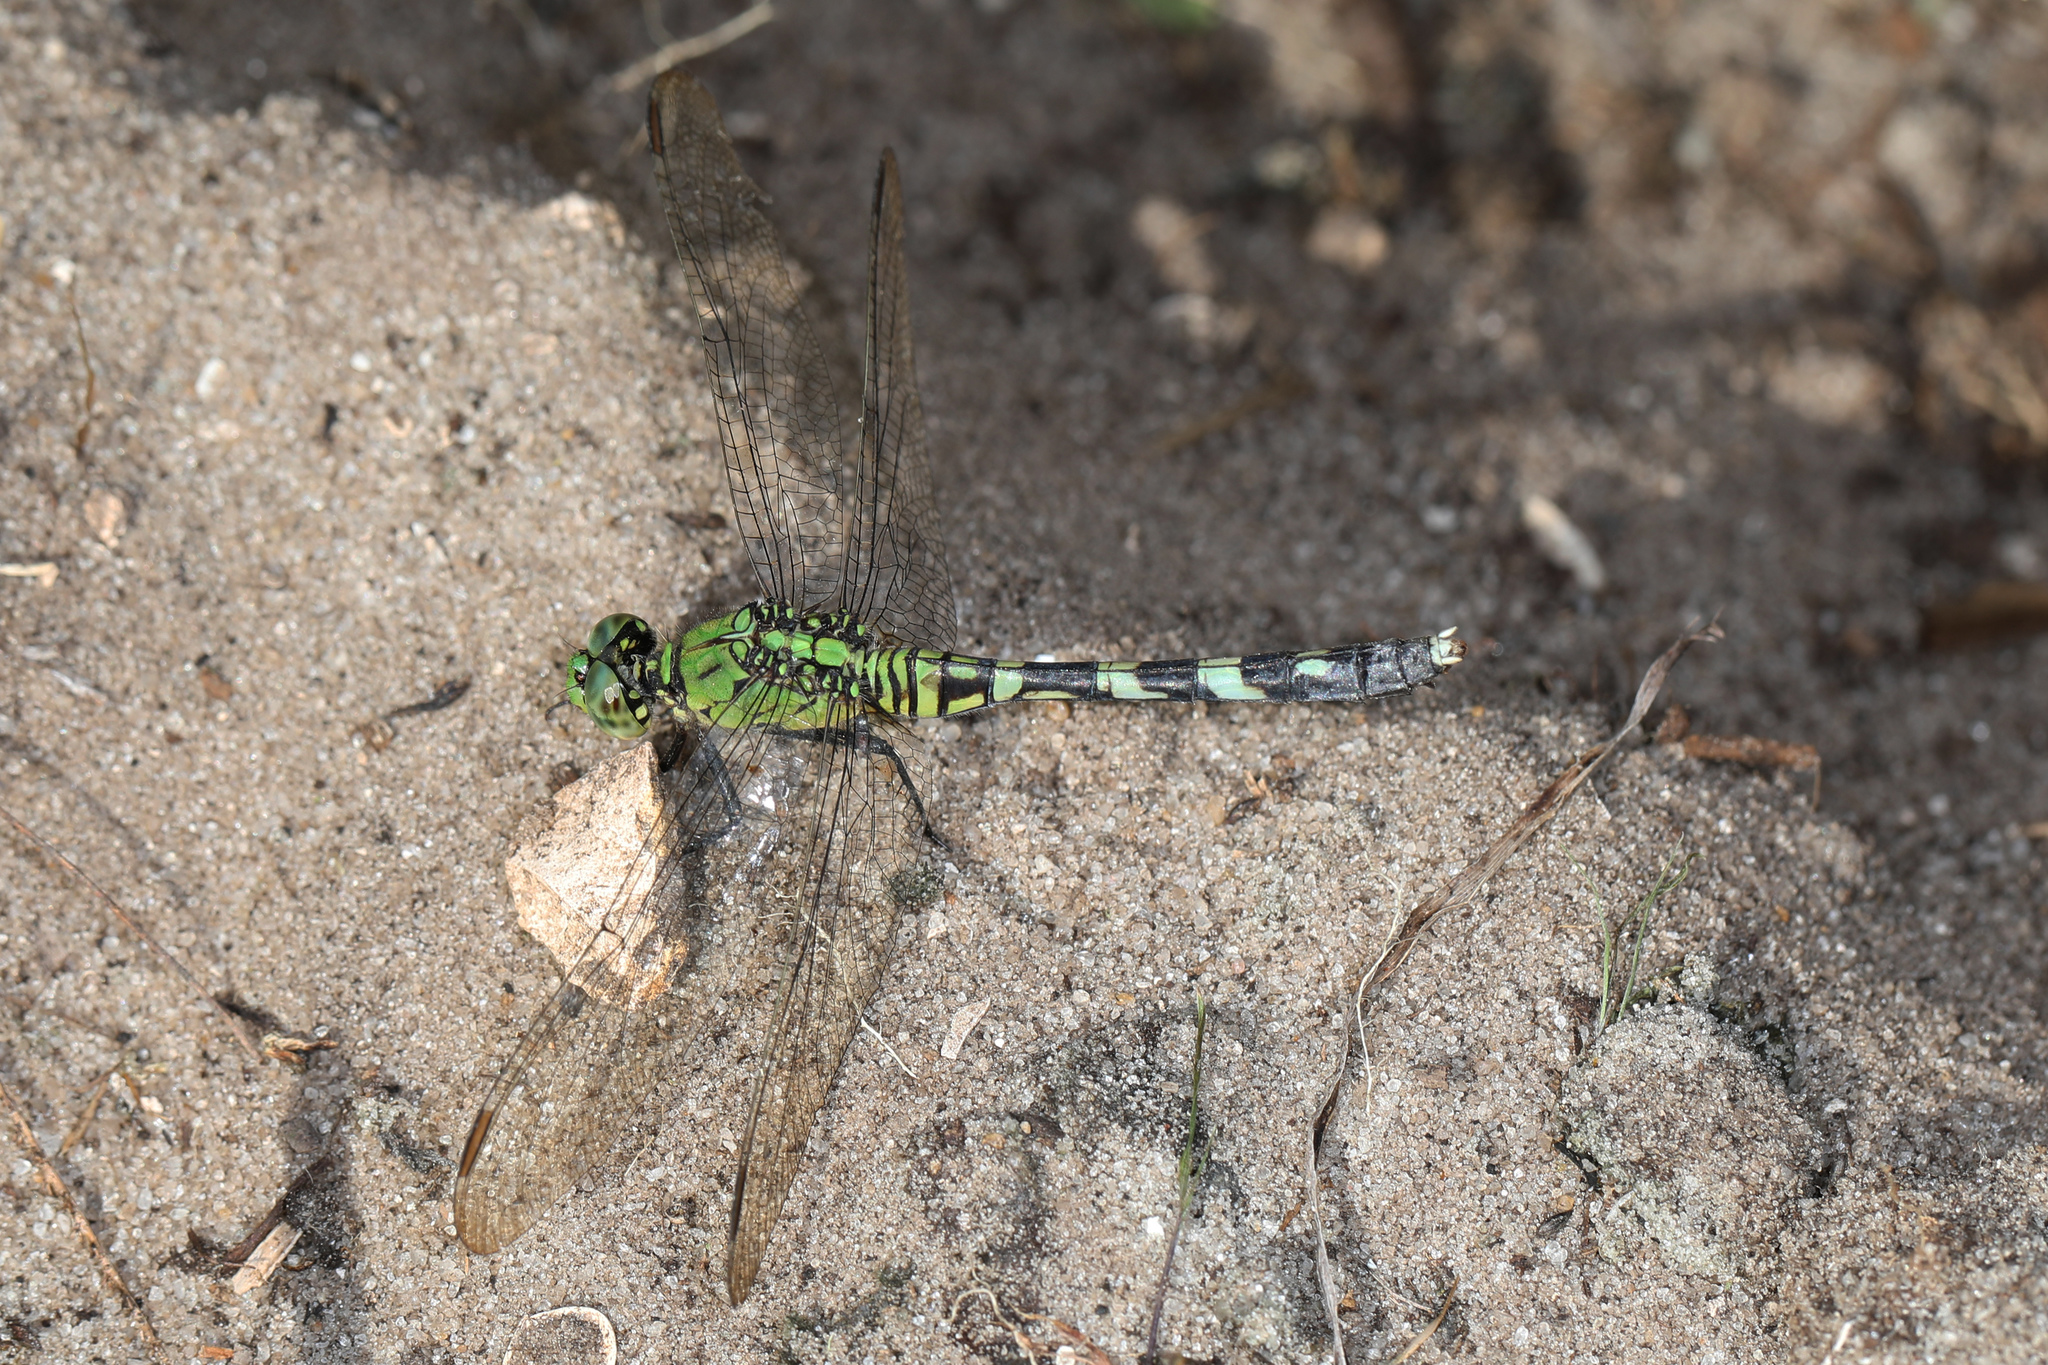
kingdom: Animalia
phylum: Arthropoda
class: Insecta
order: Odonata
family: Libellulidae
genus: Erythemis
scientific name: Erythemis simplicicollis
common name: Eastern pondhawk
